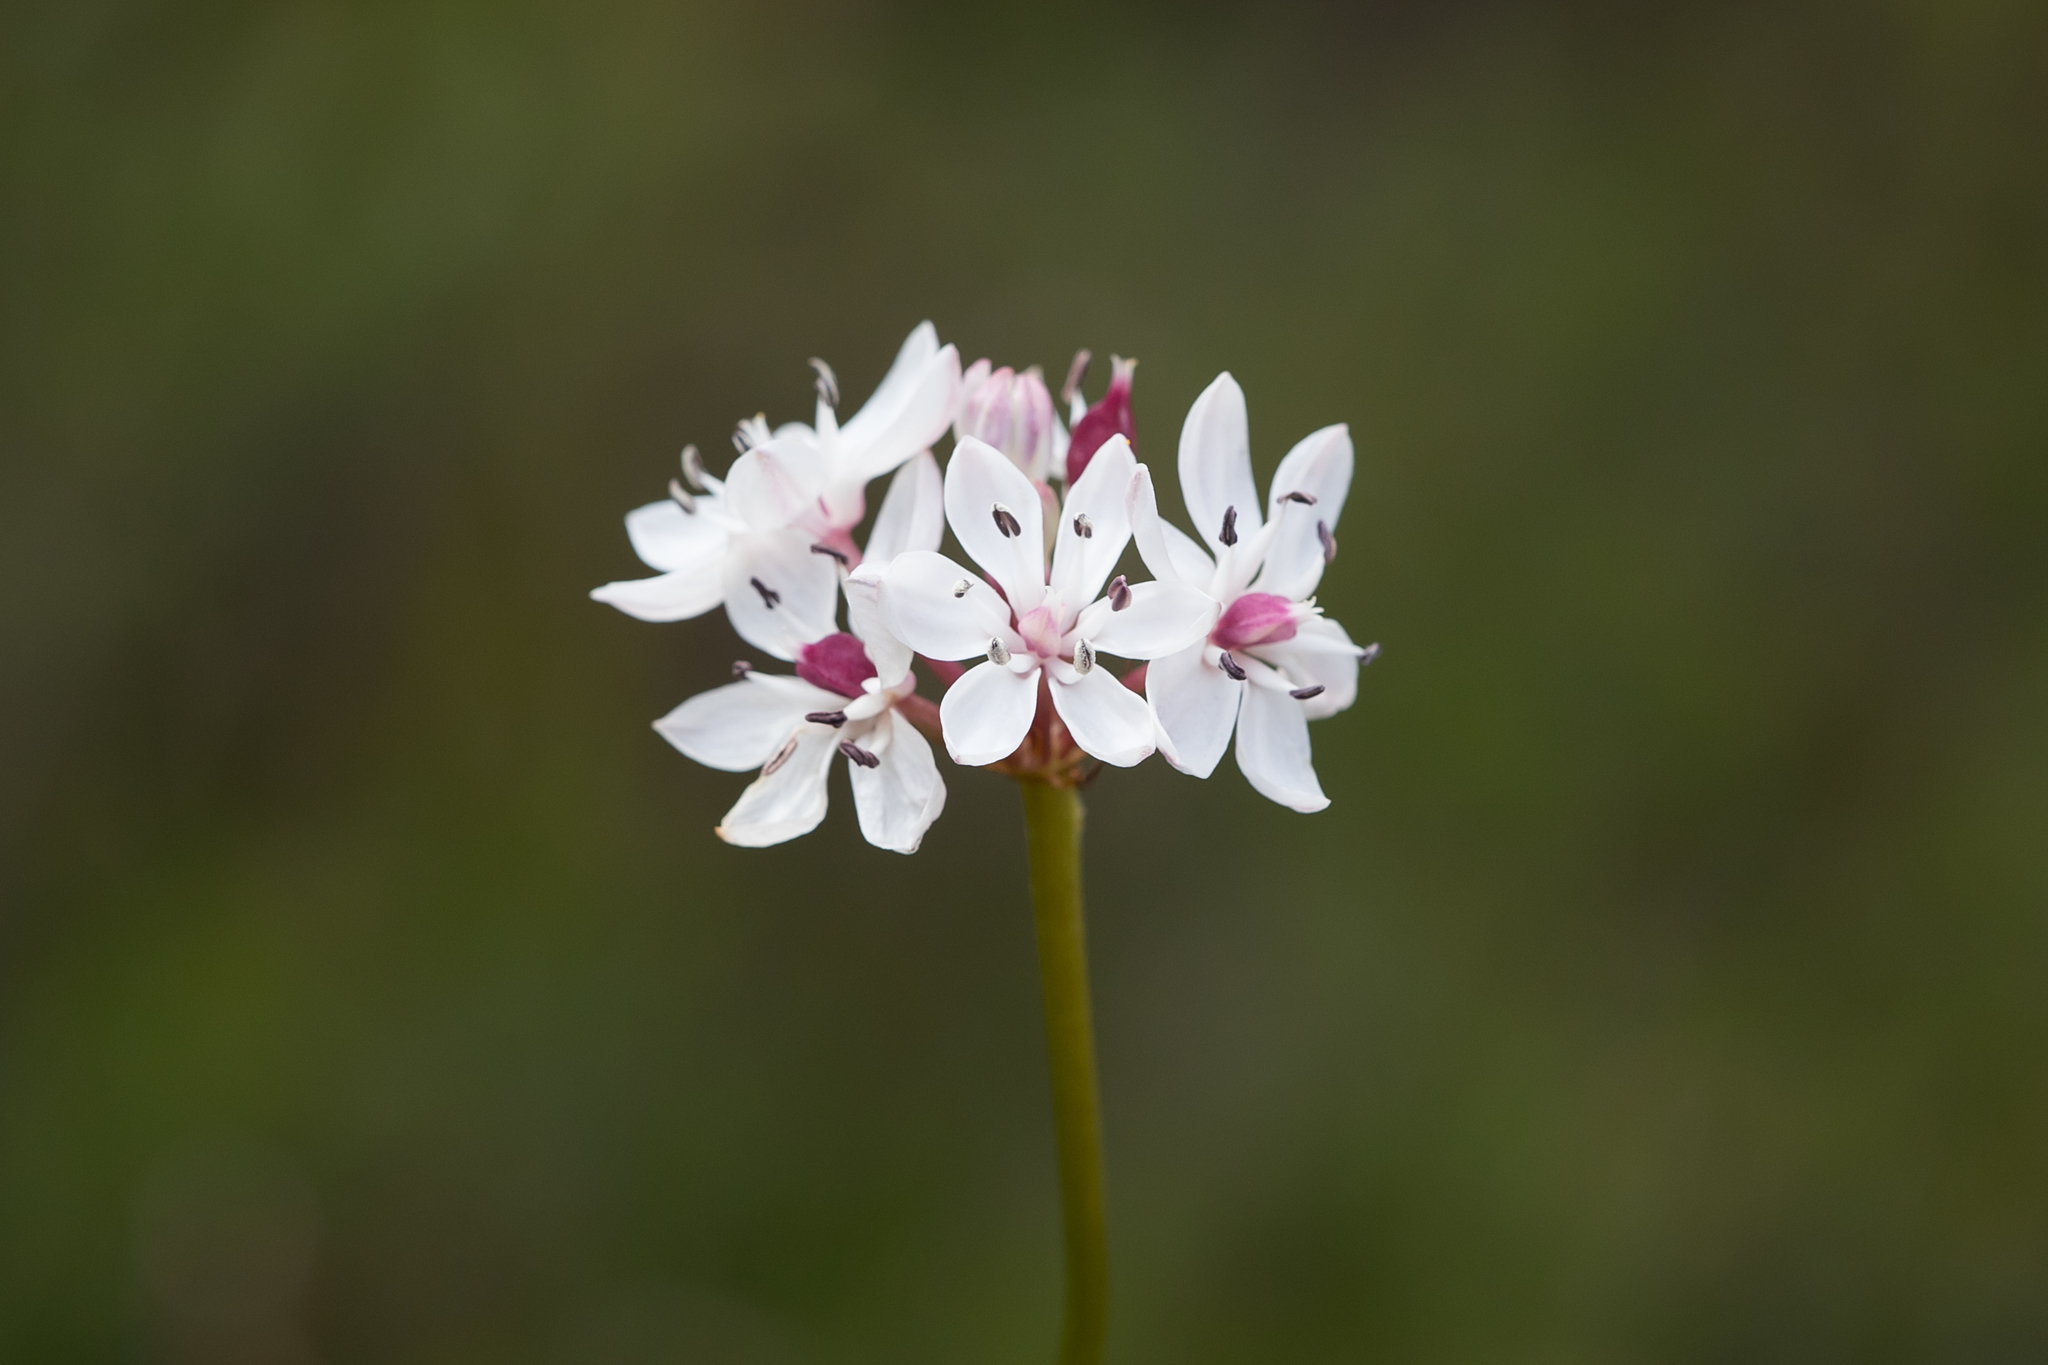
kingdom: Plantae
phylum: Tracheophyta
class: Liliopsida
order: Liliales
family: Colchicaceae
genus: Burchardia
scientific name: Burchardia umbellata
